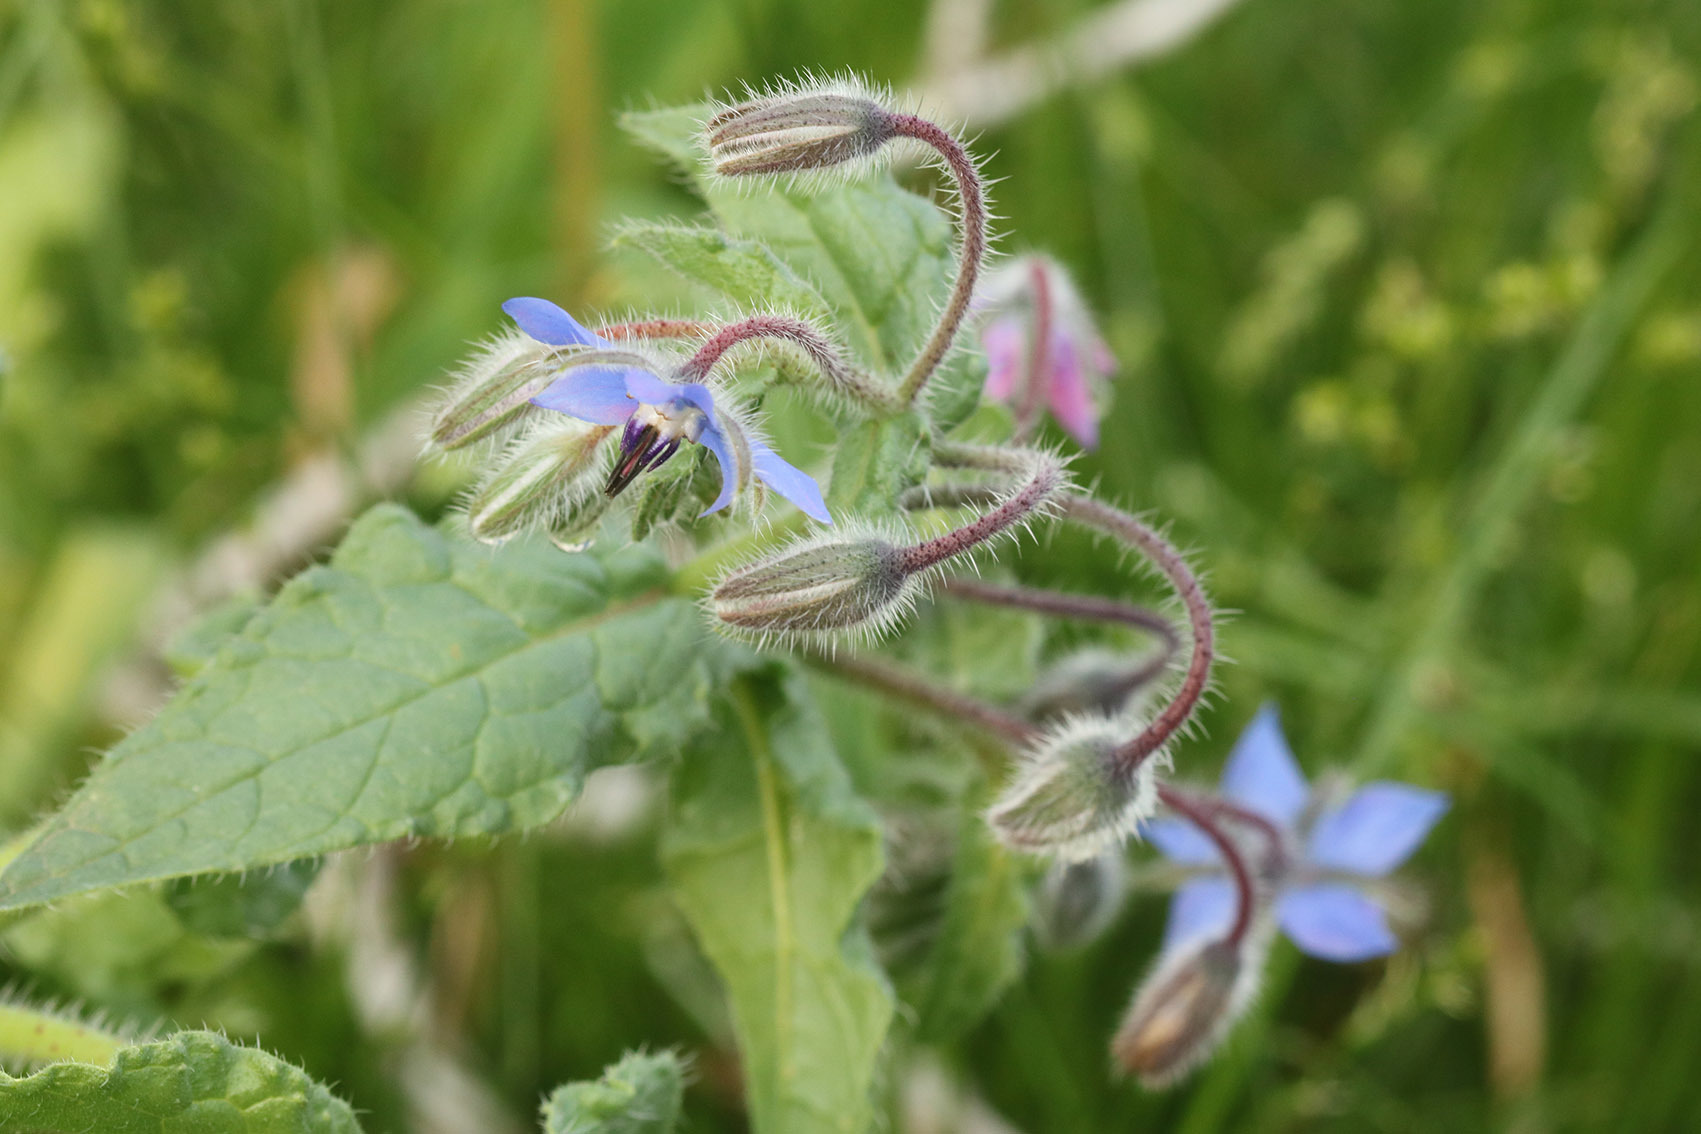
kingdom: Plantae
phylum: Tracheophyta
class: Magnoliopsida
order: Boraginales
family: Boraginaceae
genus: Borago
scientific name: Borago officinalis
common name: Borage
